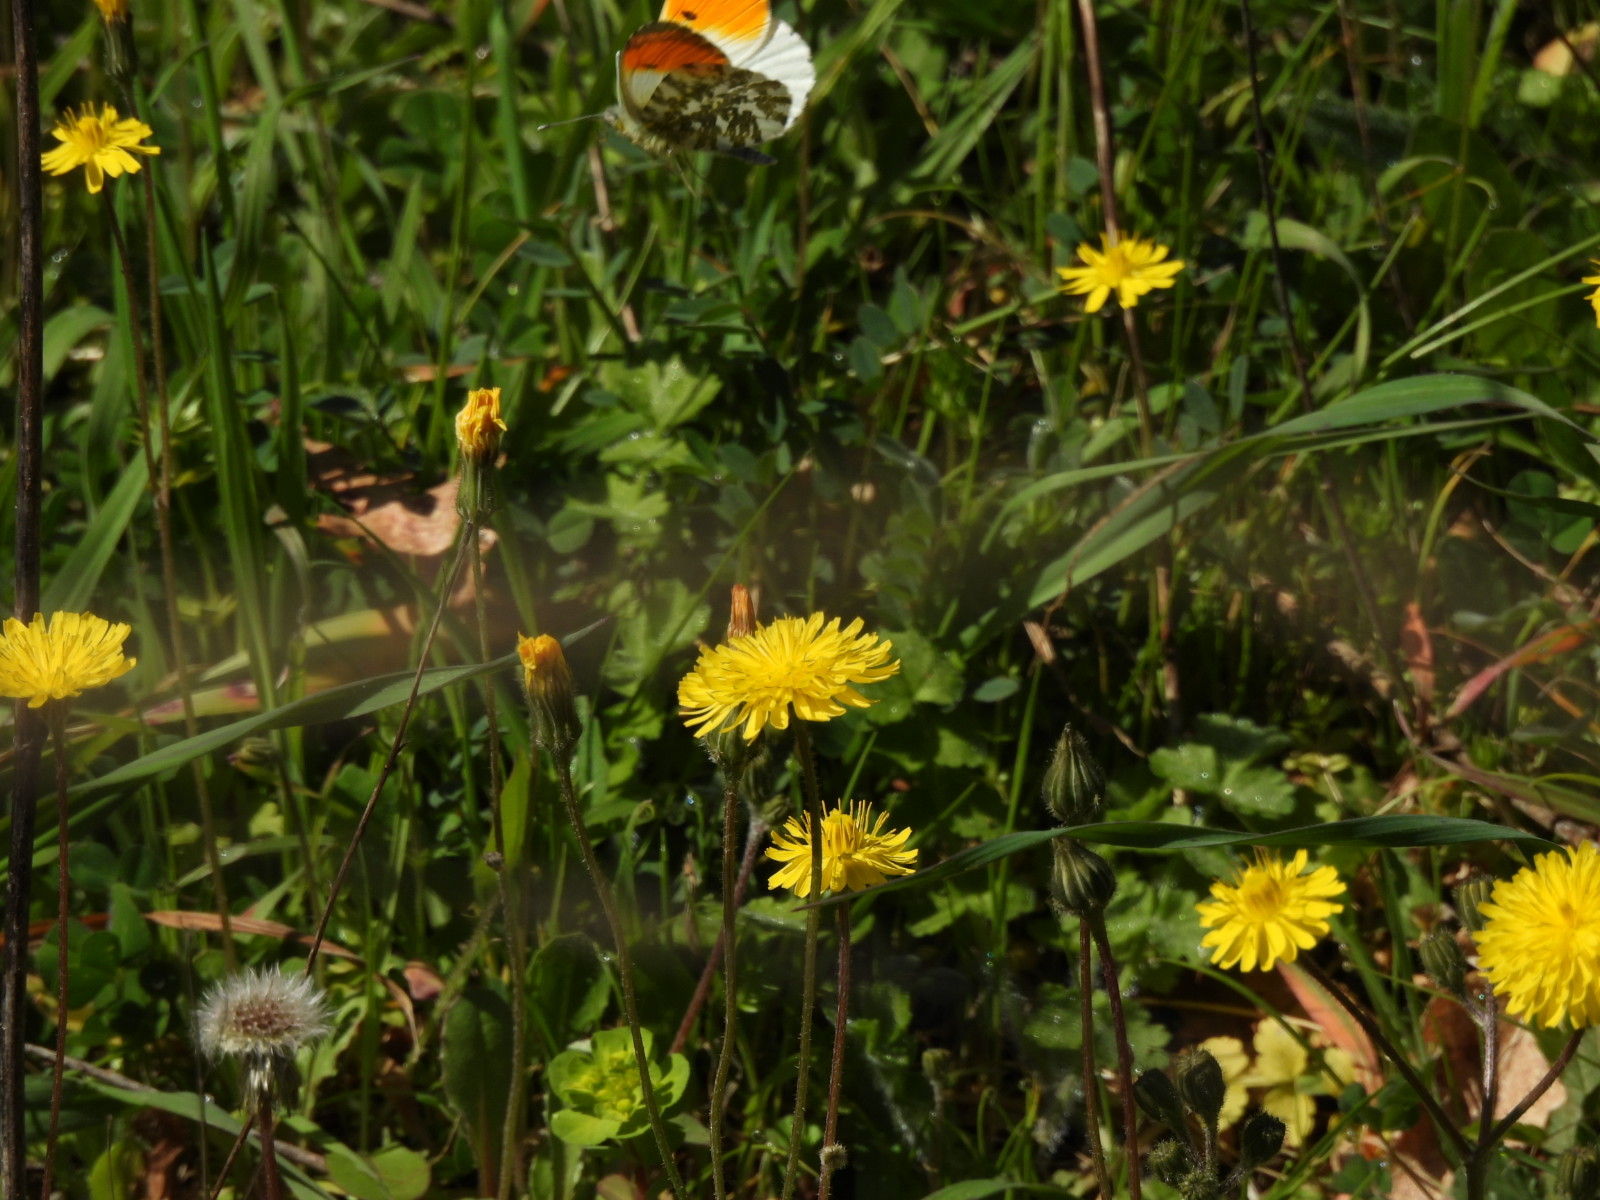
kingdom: Animalia
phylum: Arthropoda
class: Insecta
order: Lepidoptera
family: Pieridae
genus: Anthocharis
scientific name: Anthocharis cardamines
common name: Orange-tip
